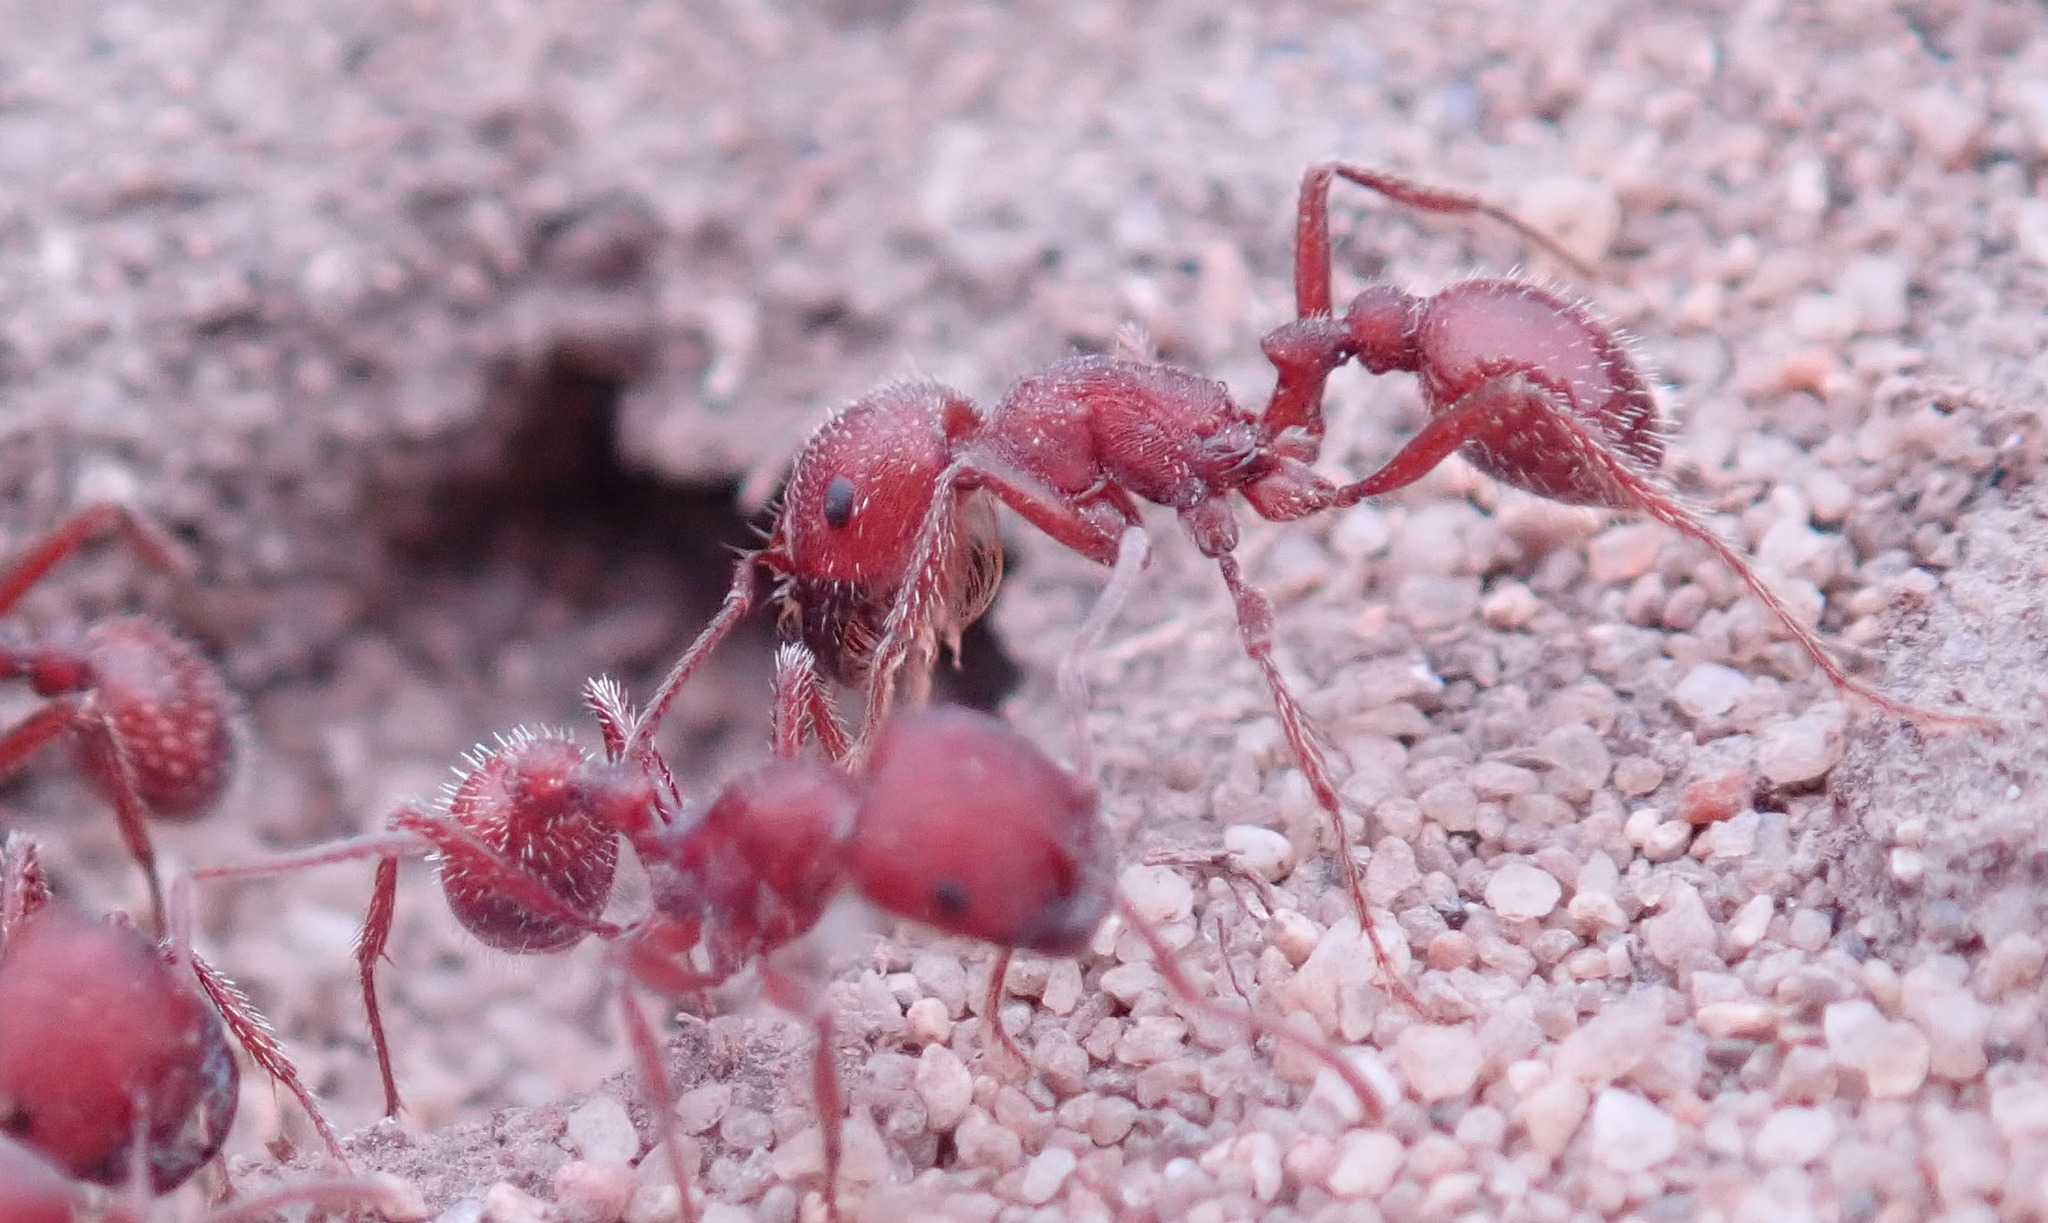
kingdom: Animalia
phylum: Arthropoda
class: Insecta
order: Hymenoptera
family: Formicidae
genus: Pogonomyrmex
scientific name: Pogonomyrmex subdentatus
